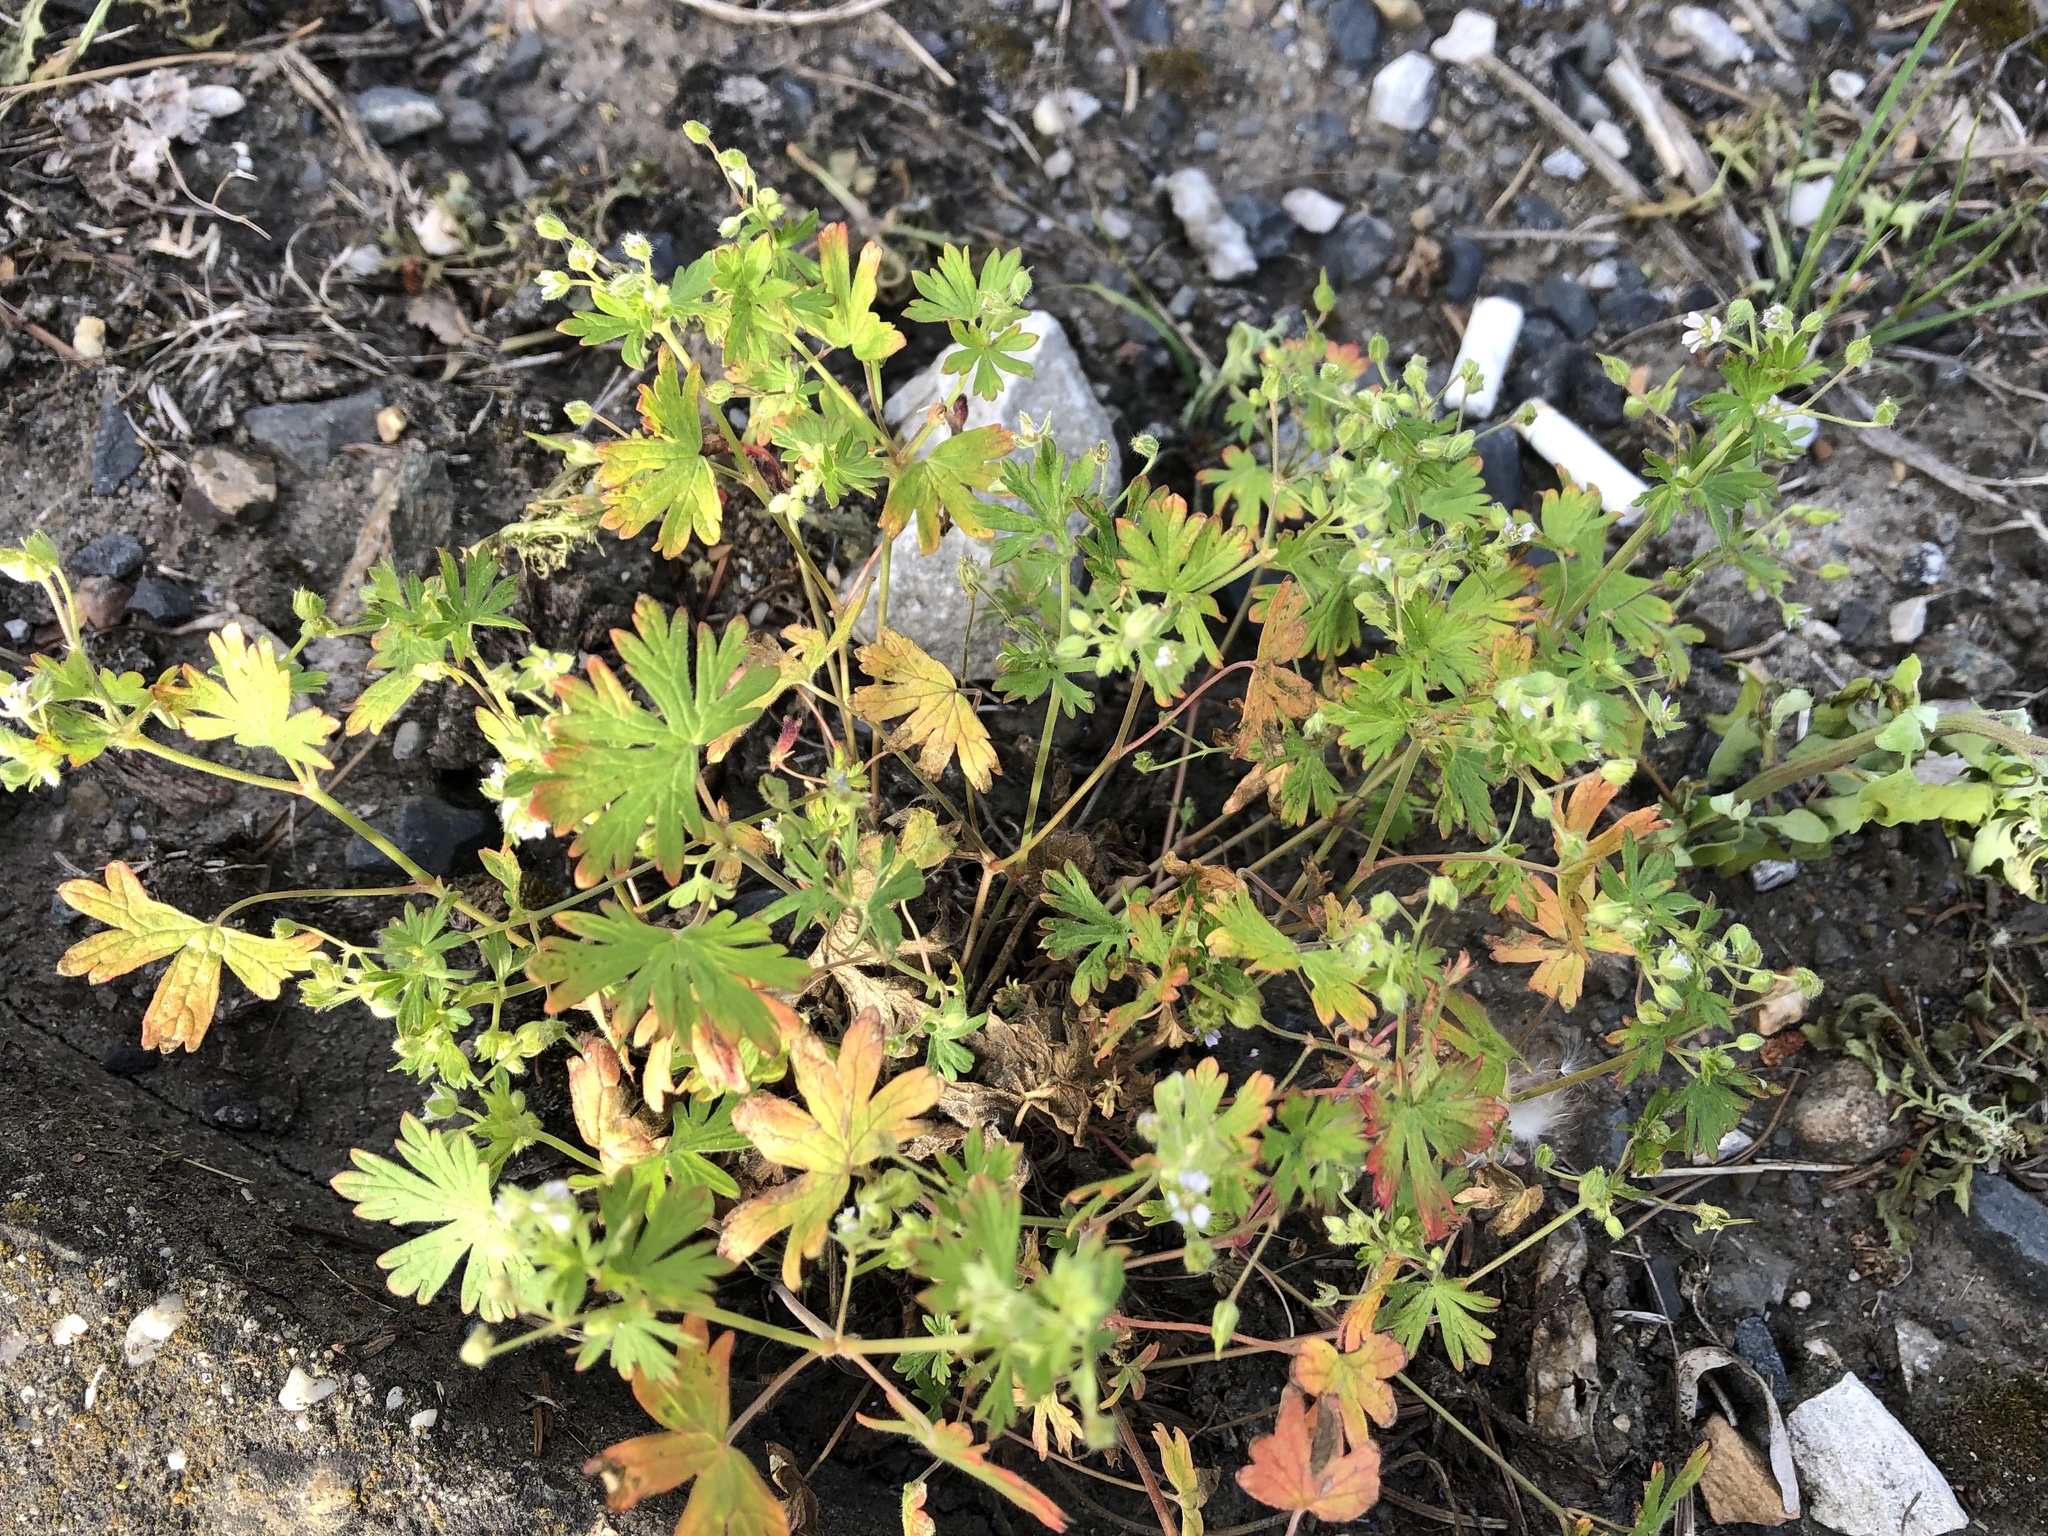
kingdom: Plantae
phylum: Tracheophyta
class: Magnoliopsida
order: Geraniales
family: Geraniaceae
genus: Geranium
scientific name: Geranium pusillum
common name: Small geranium
